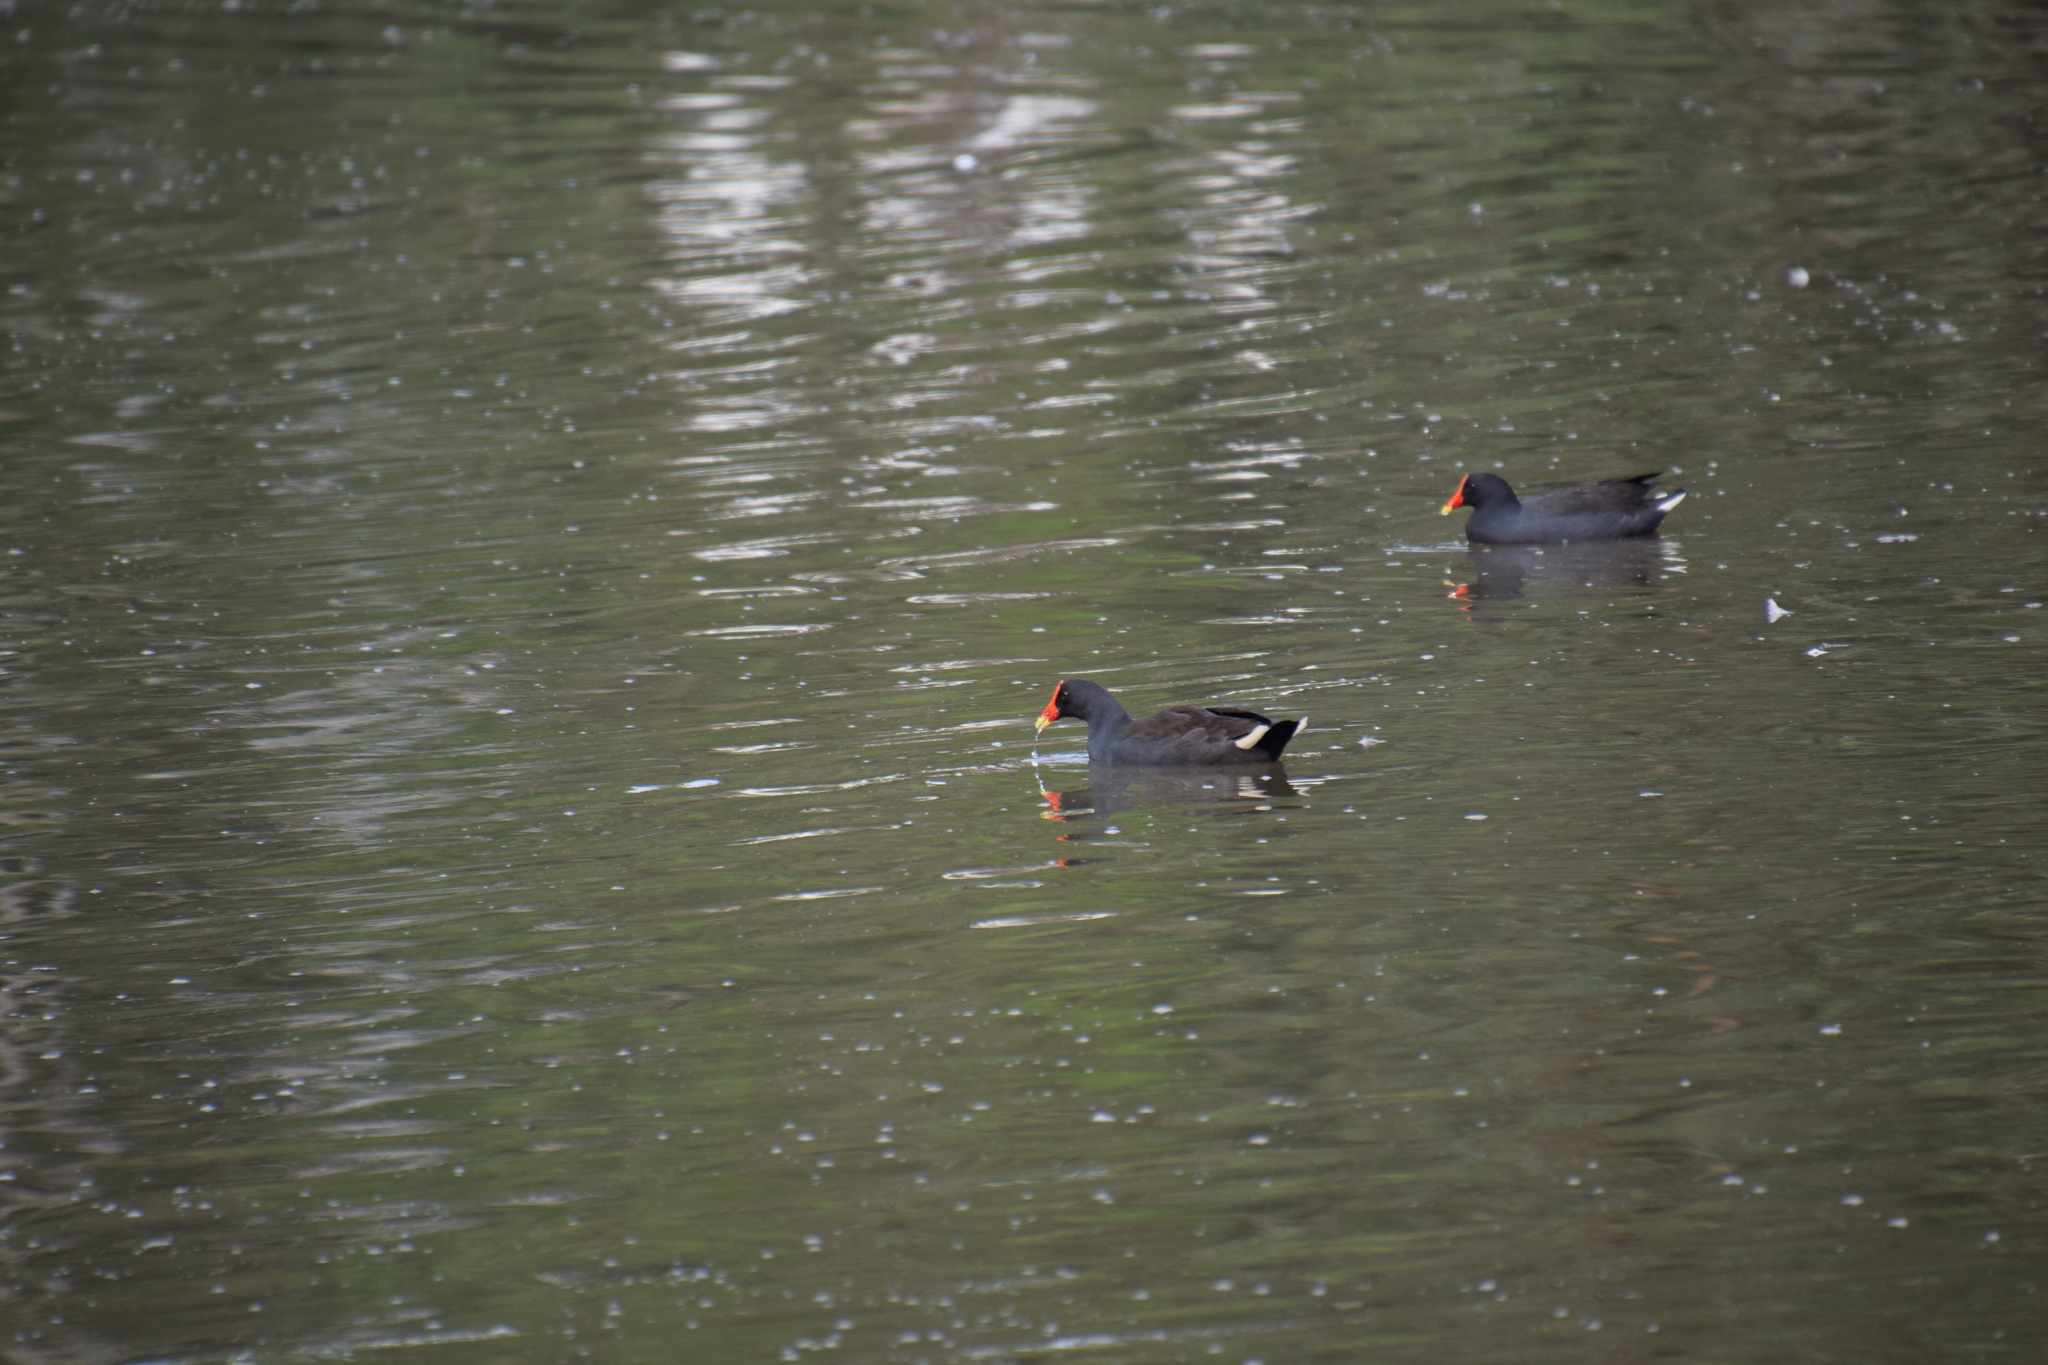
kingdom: Animalia
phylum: Chordata
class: Aves
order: Gruiformes
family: Rallidae
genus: Gallinula
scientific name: Gallinula tenebrosa
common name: Dusky moorhen
